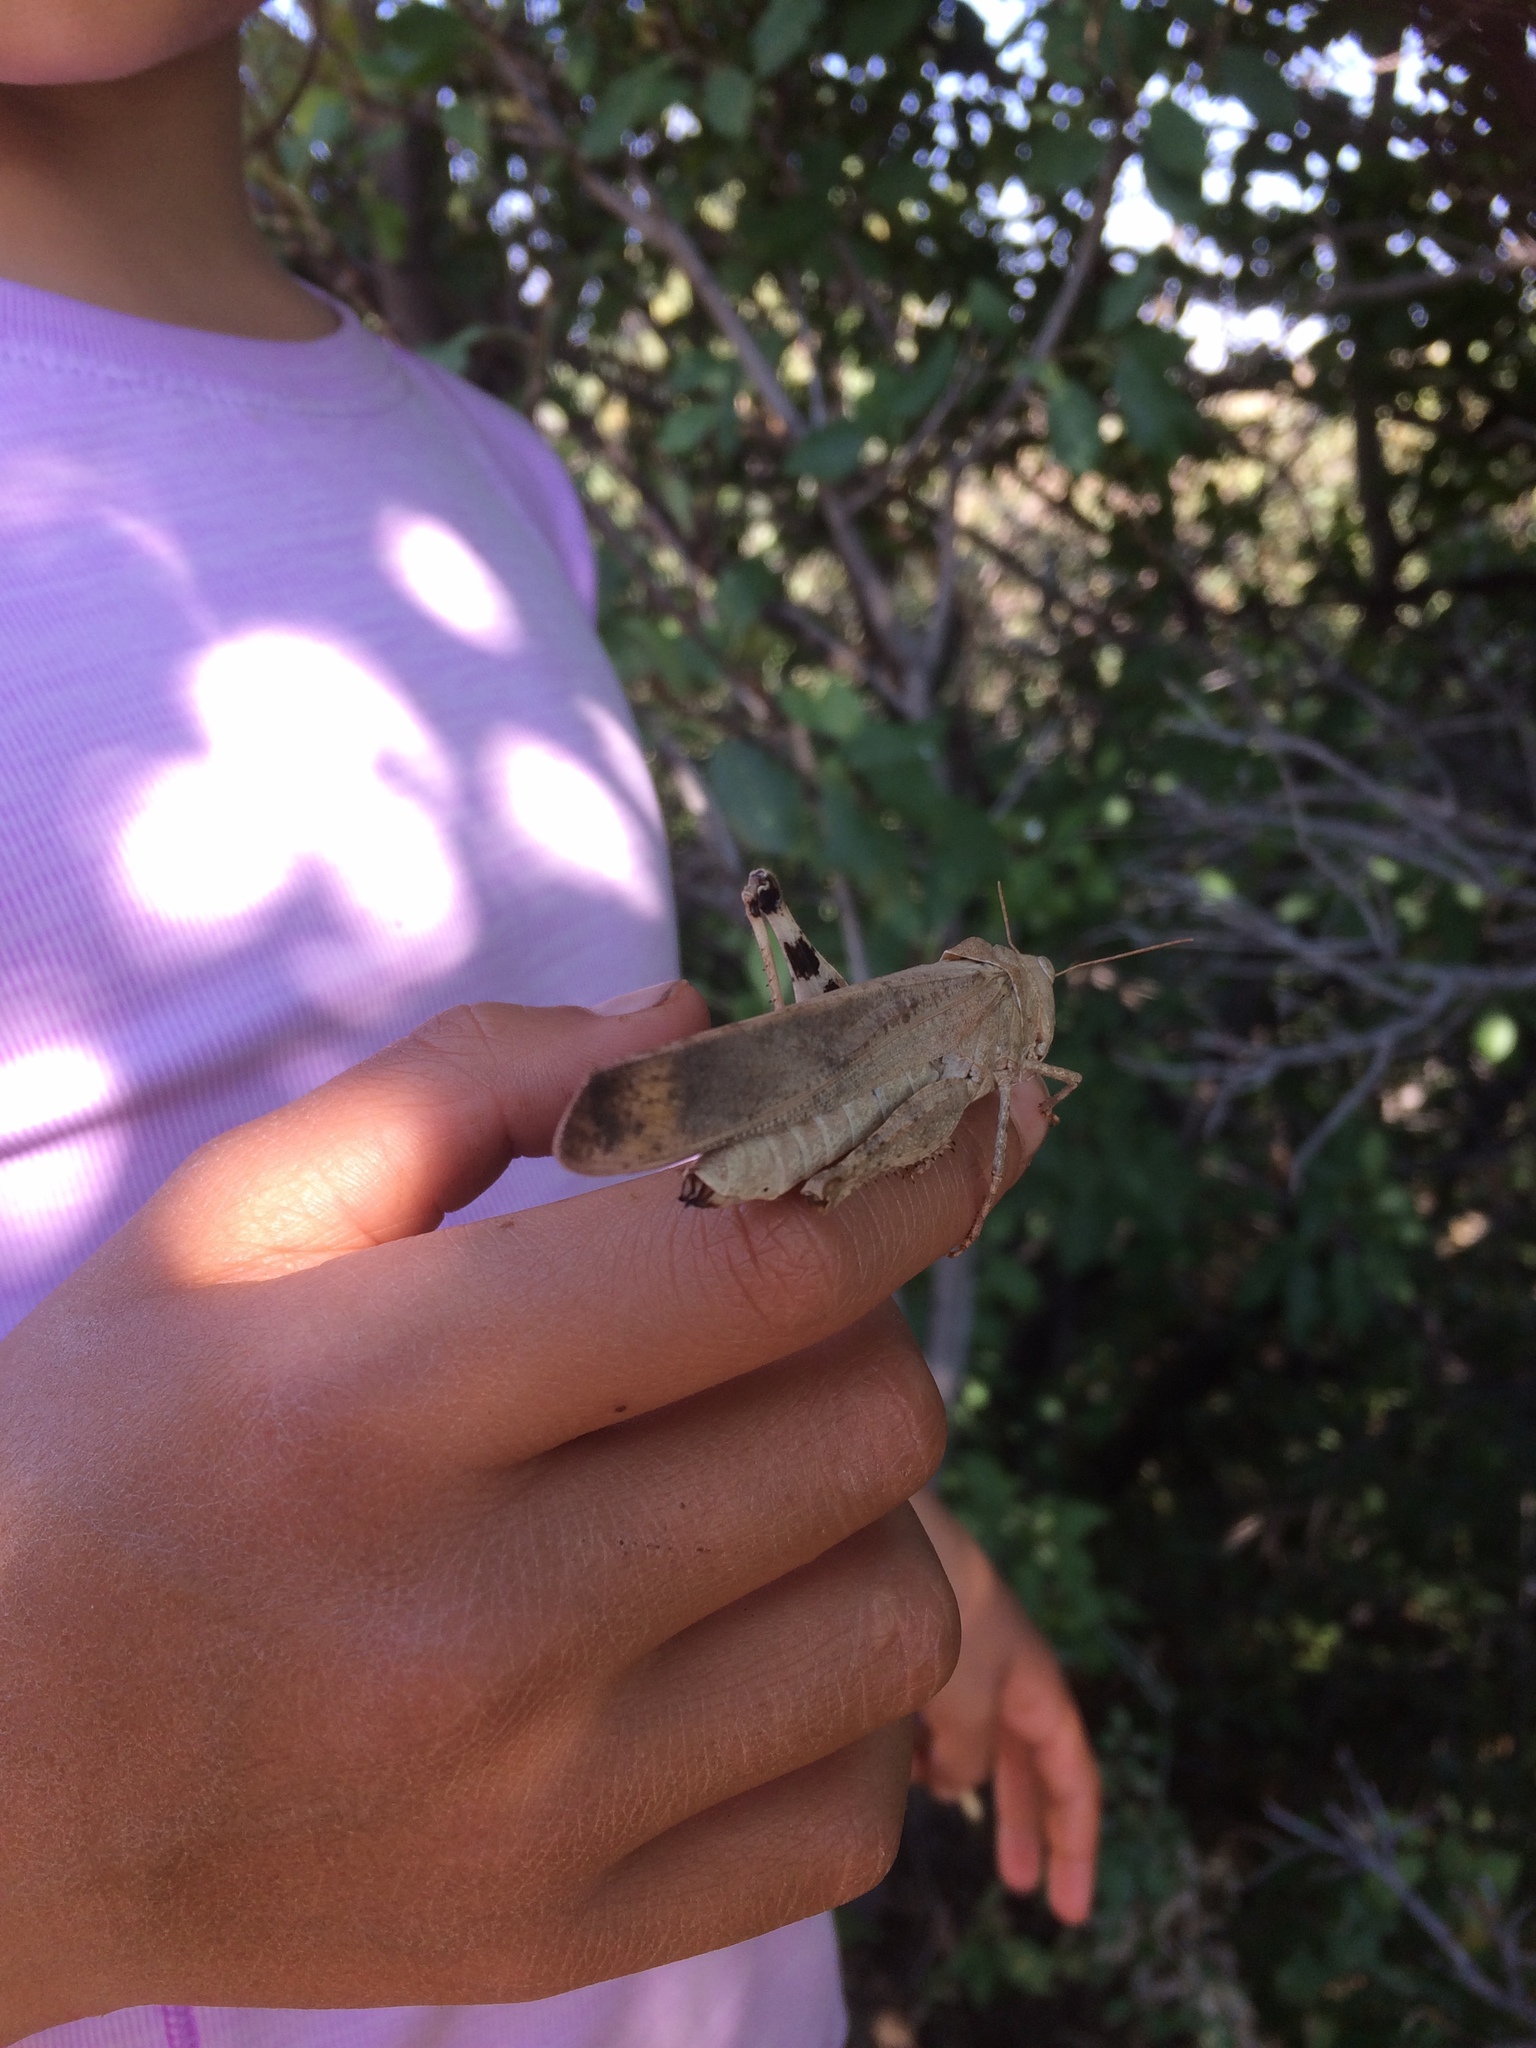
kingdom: Animalia
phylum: Arthropoda
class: Insecta
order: Orthoptera
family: Acrididae
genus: Dissosteira
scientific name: Dissosteira carolina
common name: Carolina grasshopper
